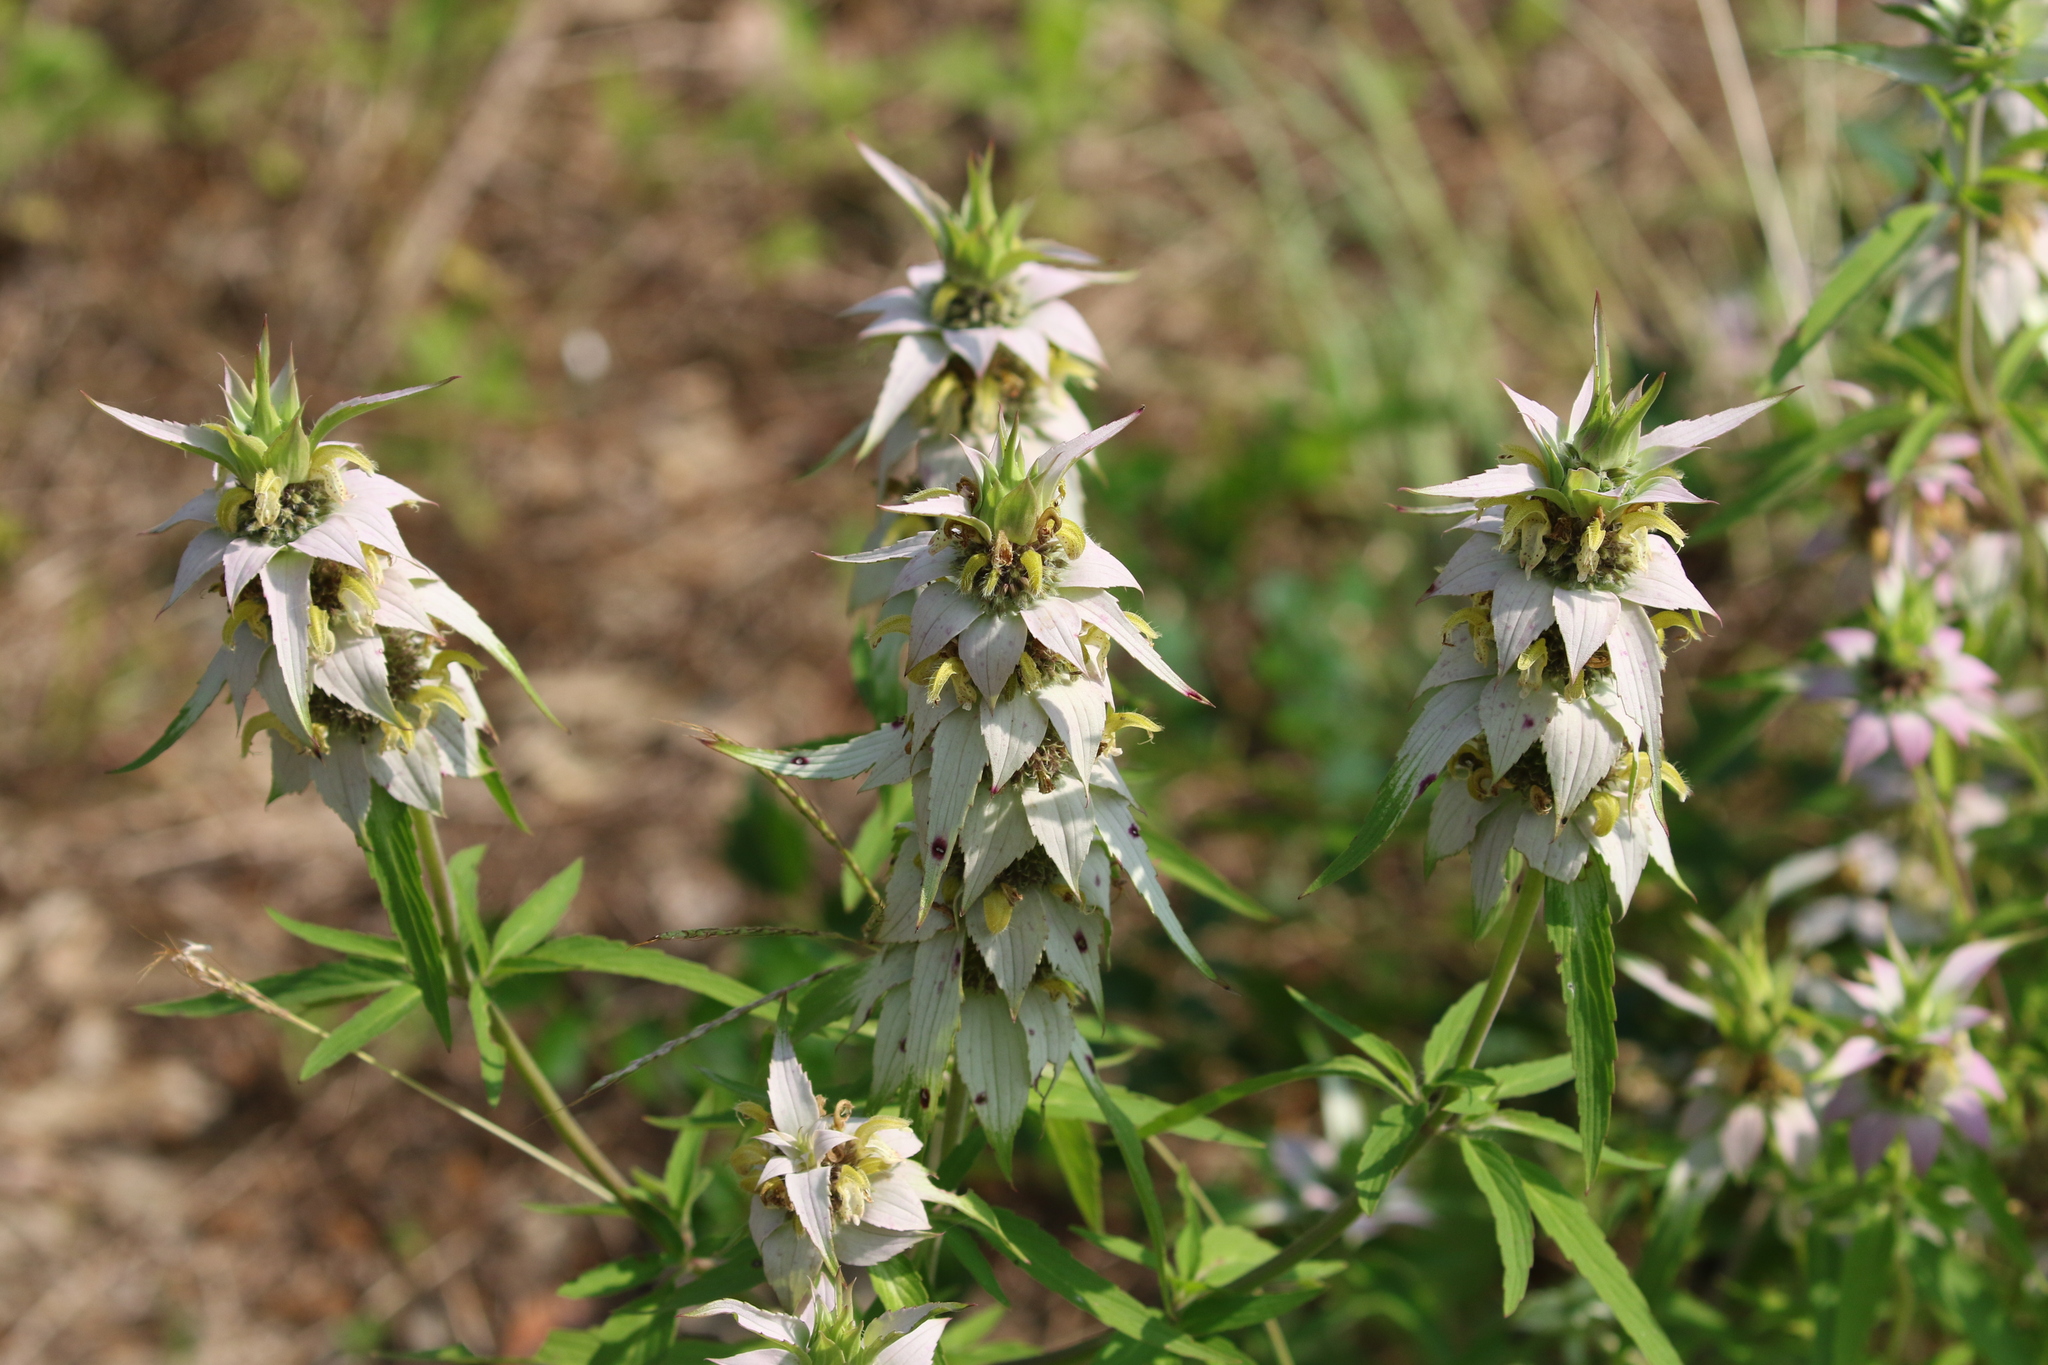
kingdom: Plantae
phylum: Tracheophyta
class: Magnoliopsida
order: Lamiales
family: Lamiaceae
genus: Monarda
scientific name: Monarda punctata
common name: Dotted monarda
